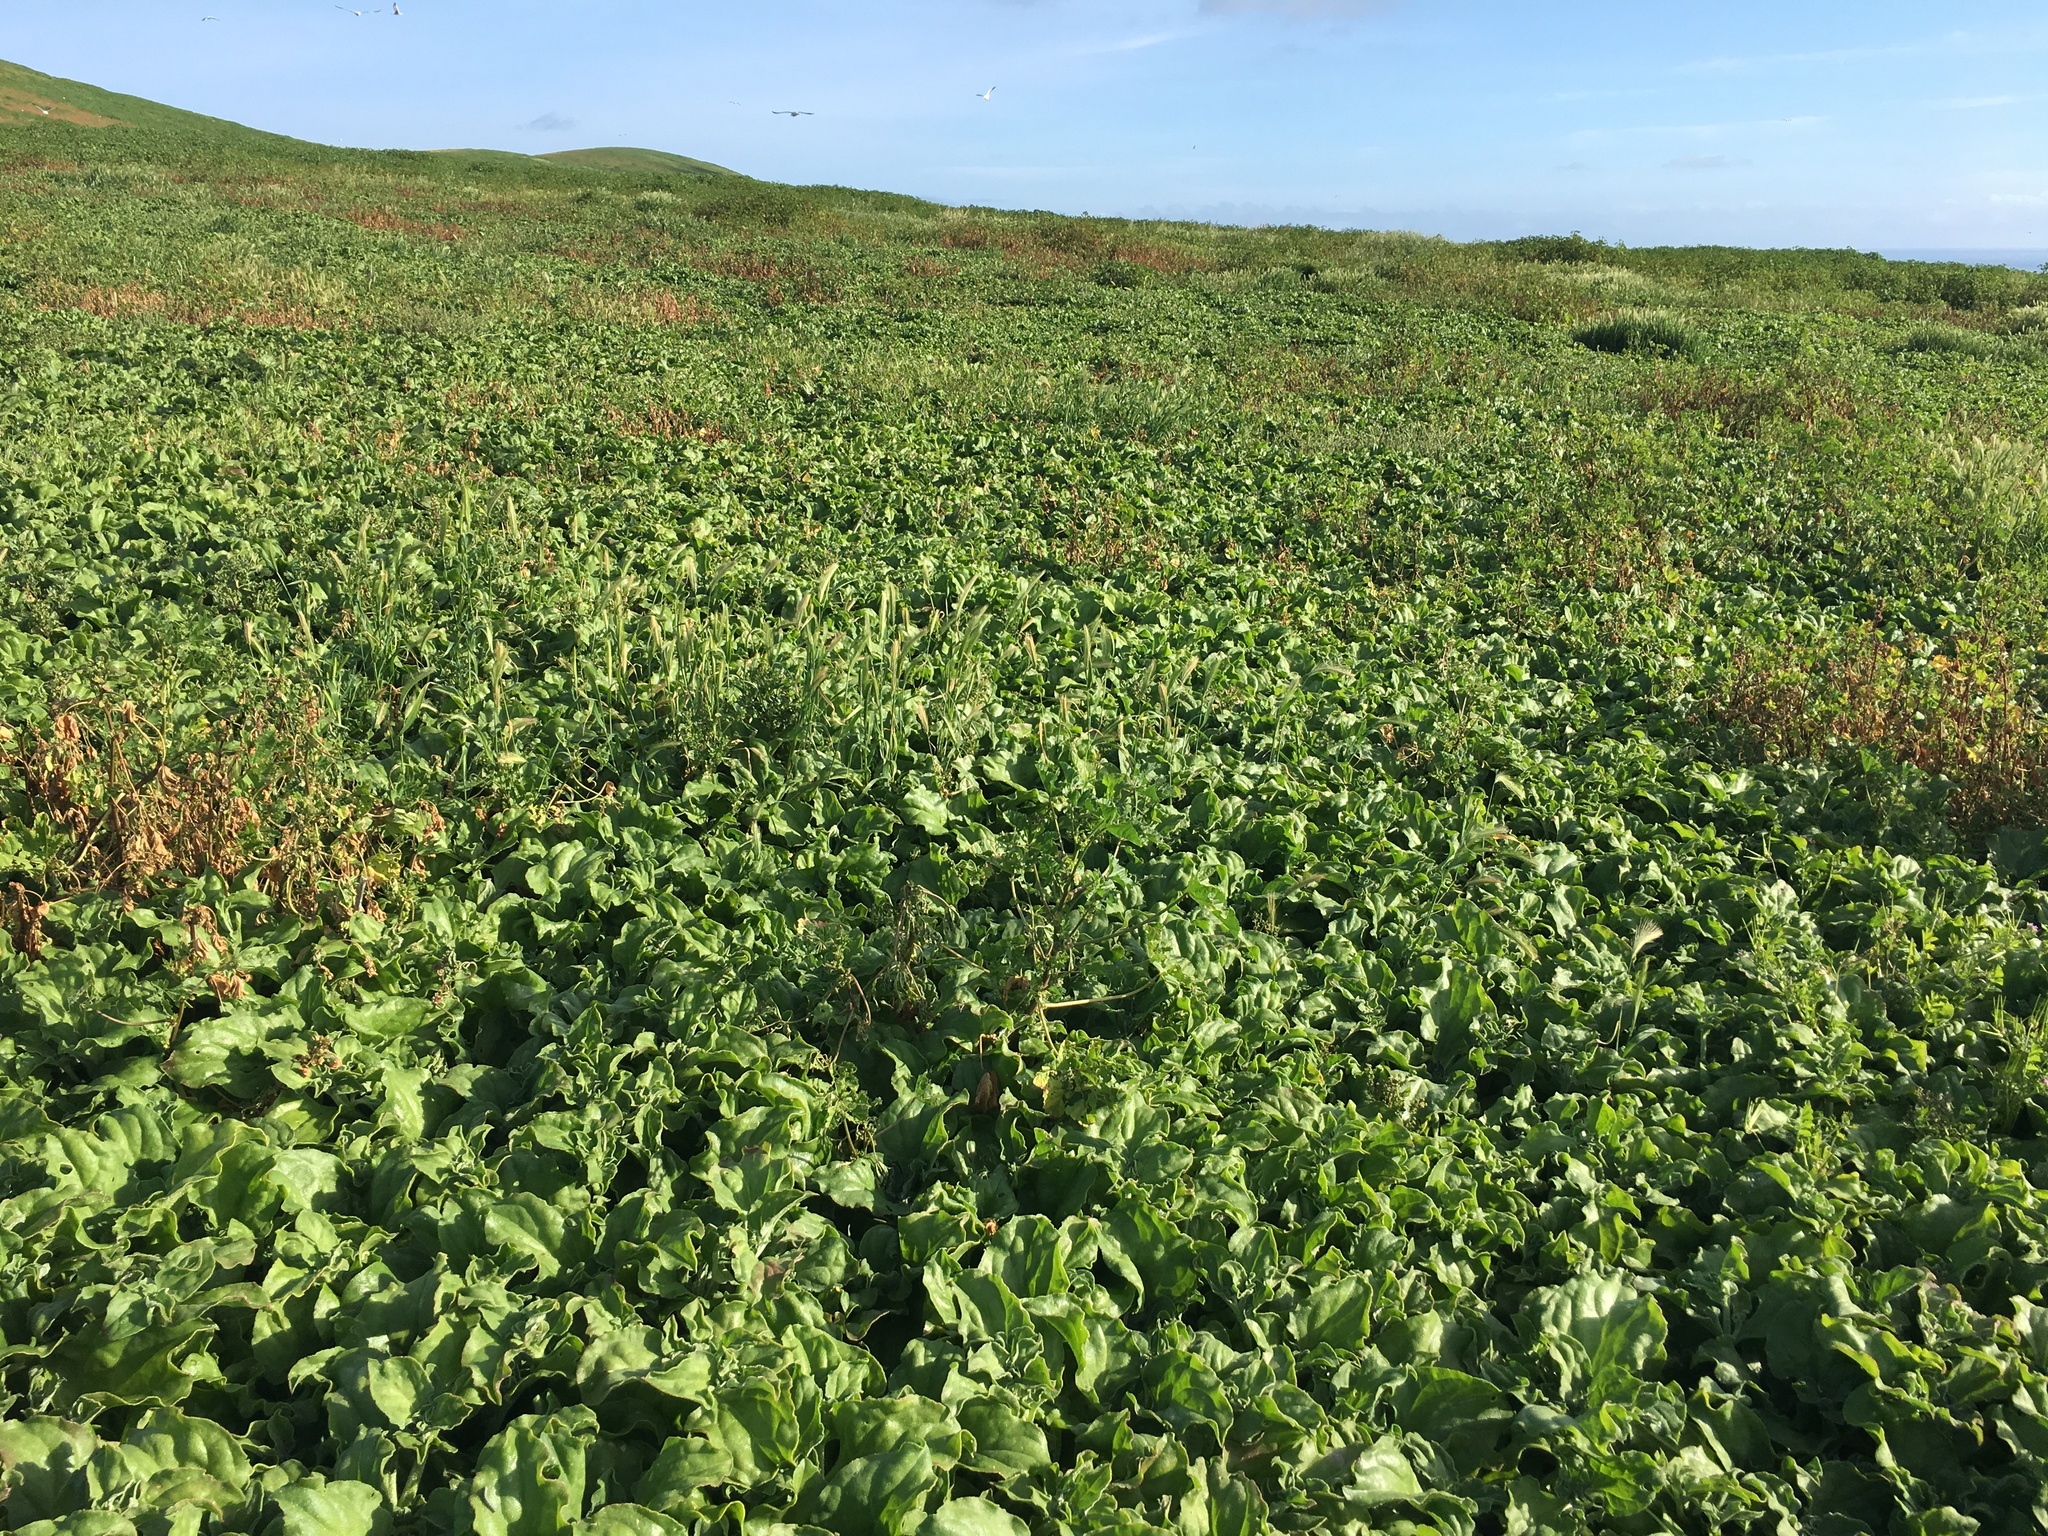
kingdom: Plantae
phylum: Tracheophyta
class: Magnoliopsida
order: Caryophyllales
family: Aizoaceae
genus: Mesembryanthemum
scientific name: Mesembryanthemum crystallinum
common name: Common iceplant
